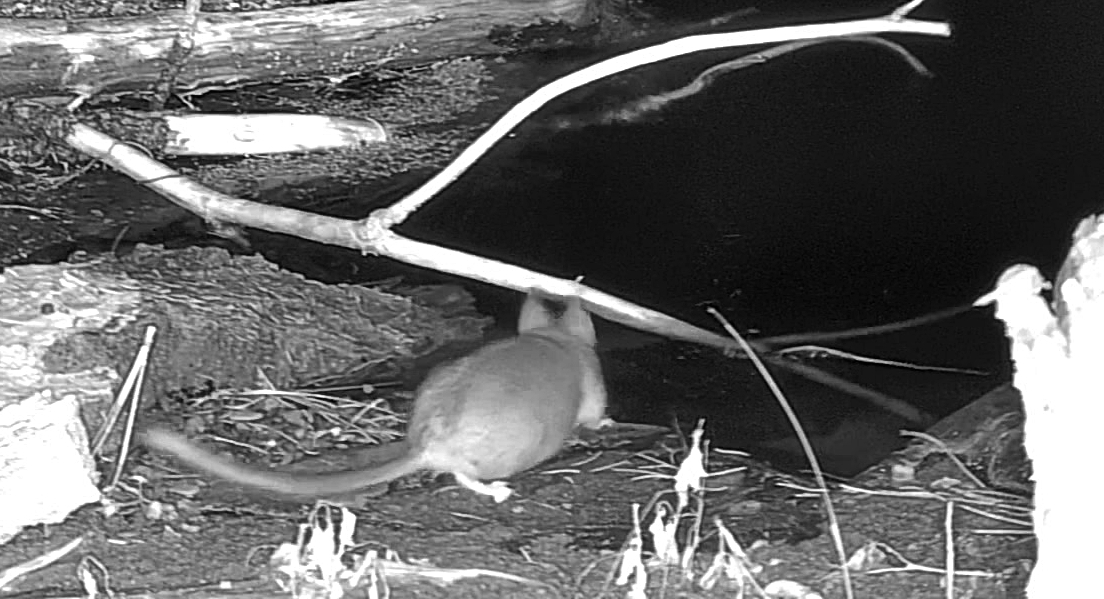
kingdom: Animalia
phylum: Chordata
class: Mammalia
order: Rodentia
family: Cricetidae
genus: Neotoma
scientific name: Neotoma cinerea
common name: Bushy-tailed woodrat
